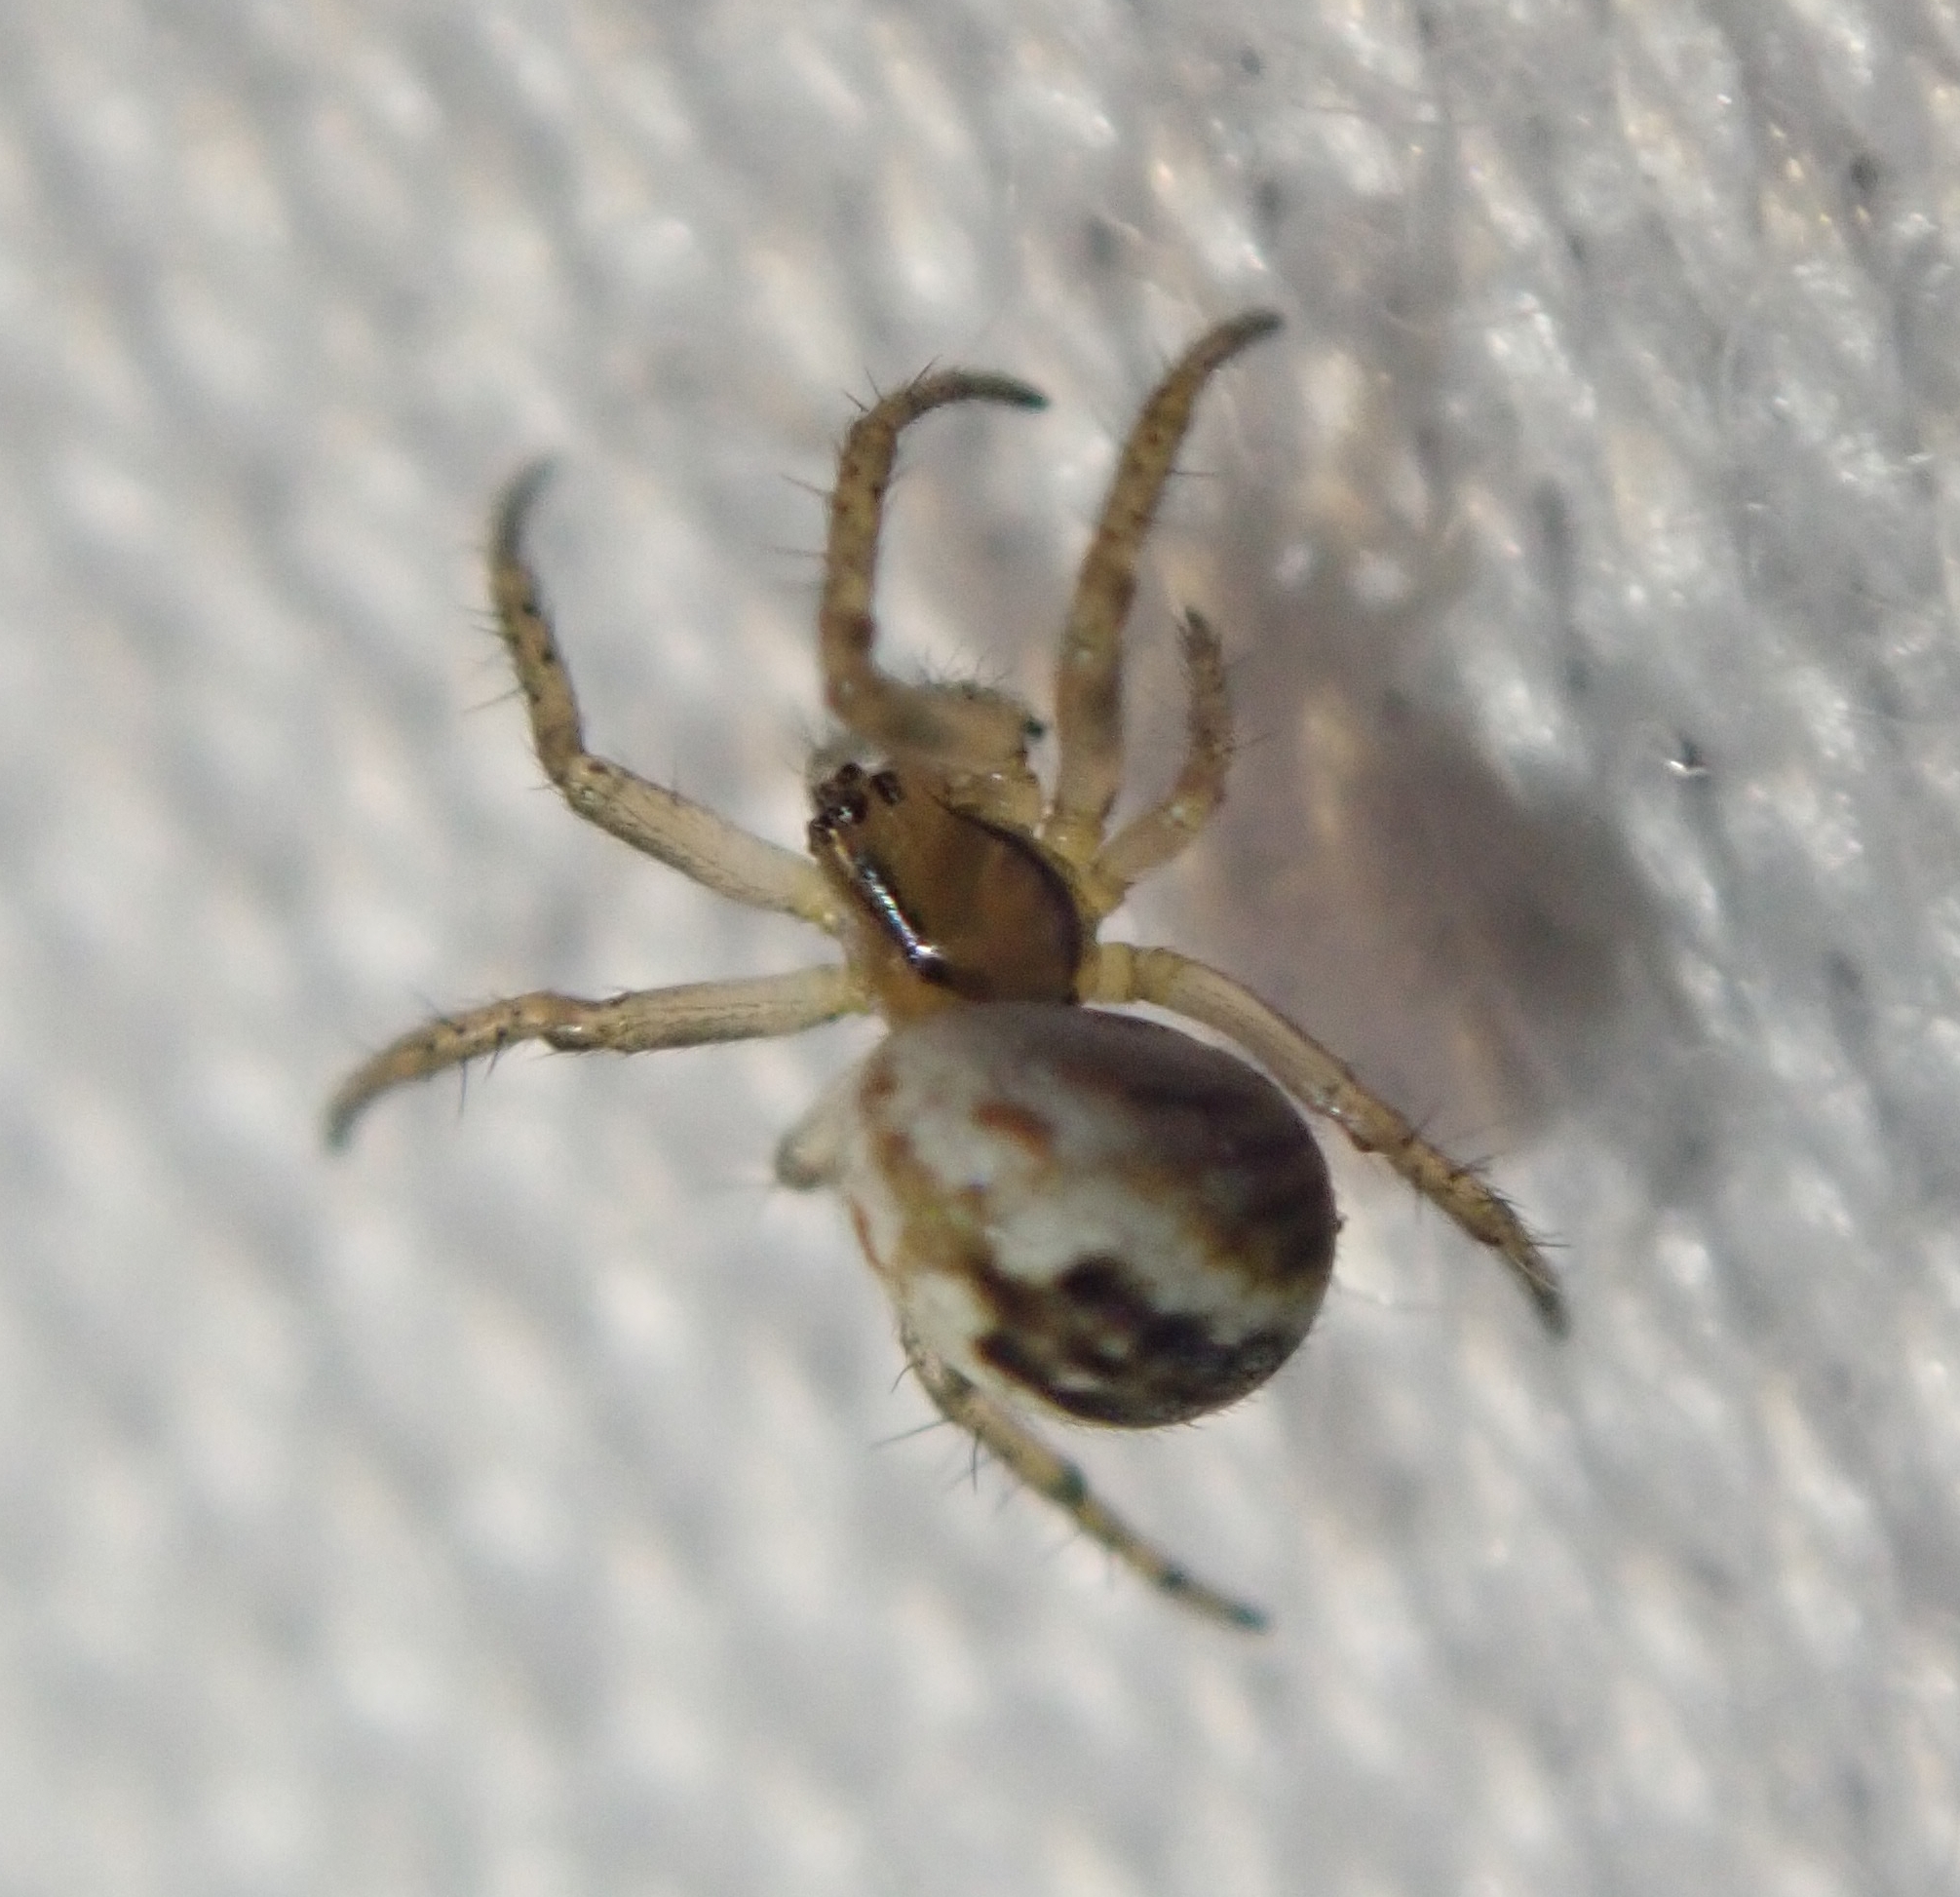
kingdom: Animalia
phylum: Arthropoda
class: Arachnida
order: Araneae
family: Araneidae
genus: Mangora
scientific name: Mangora acalypha
